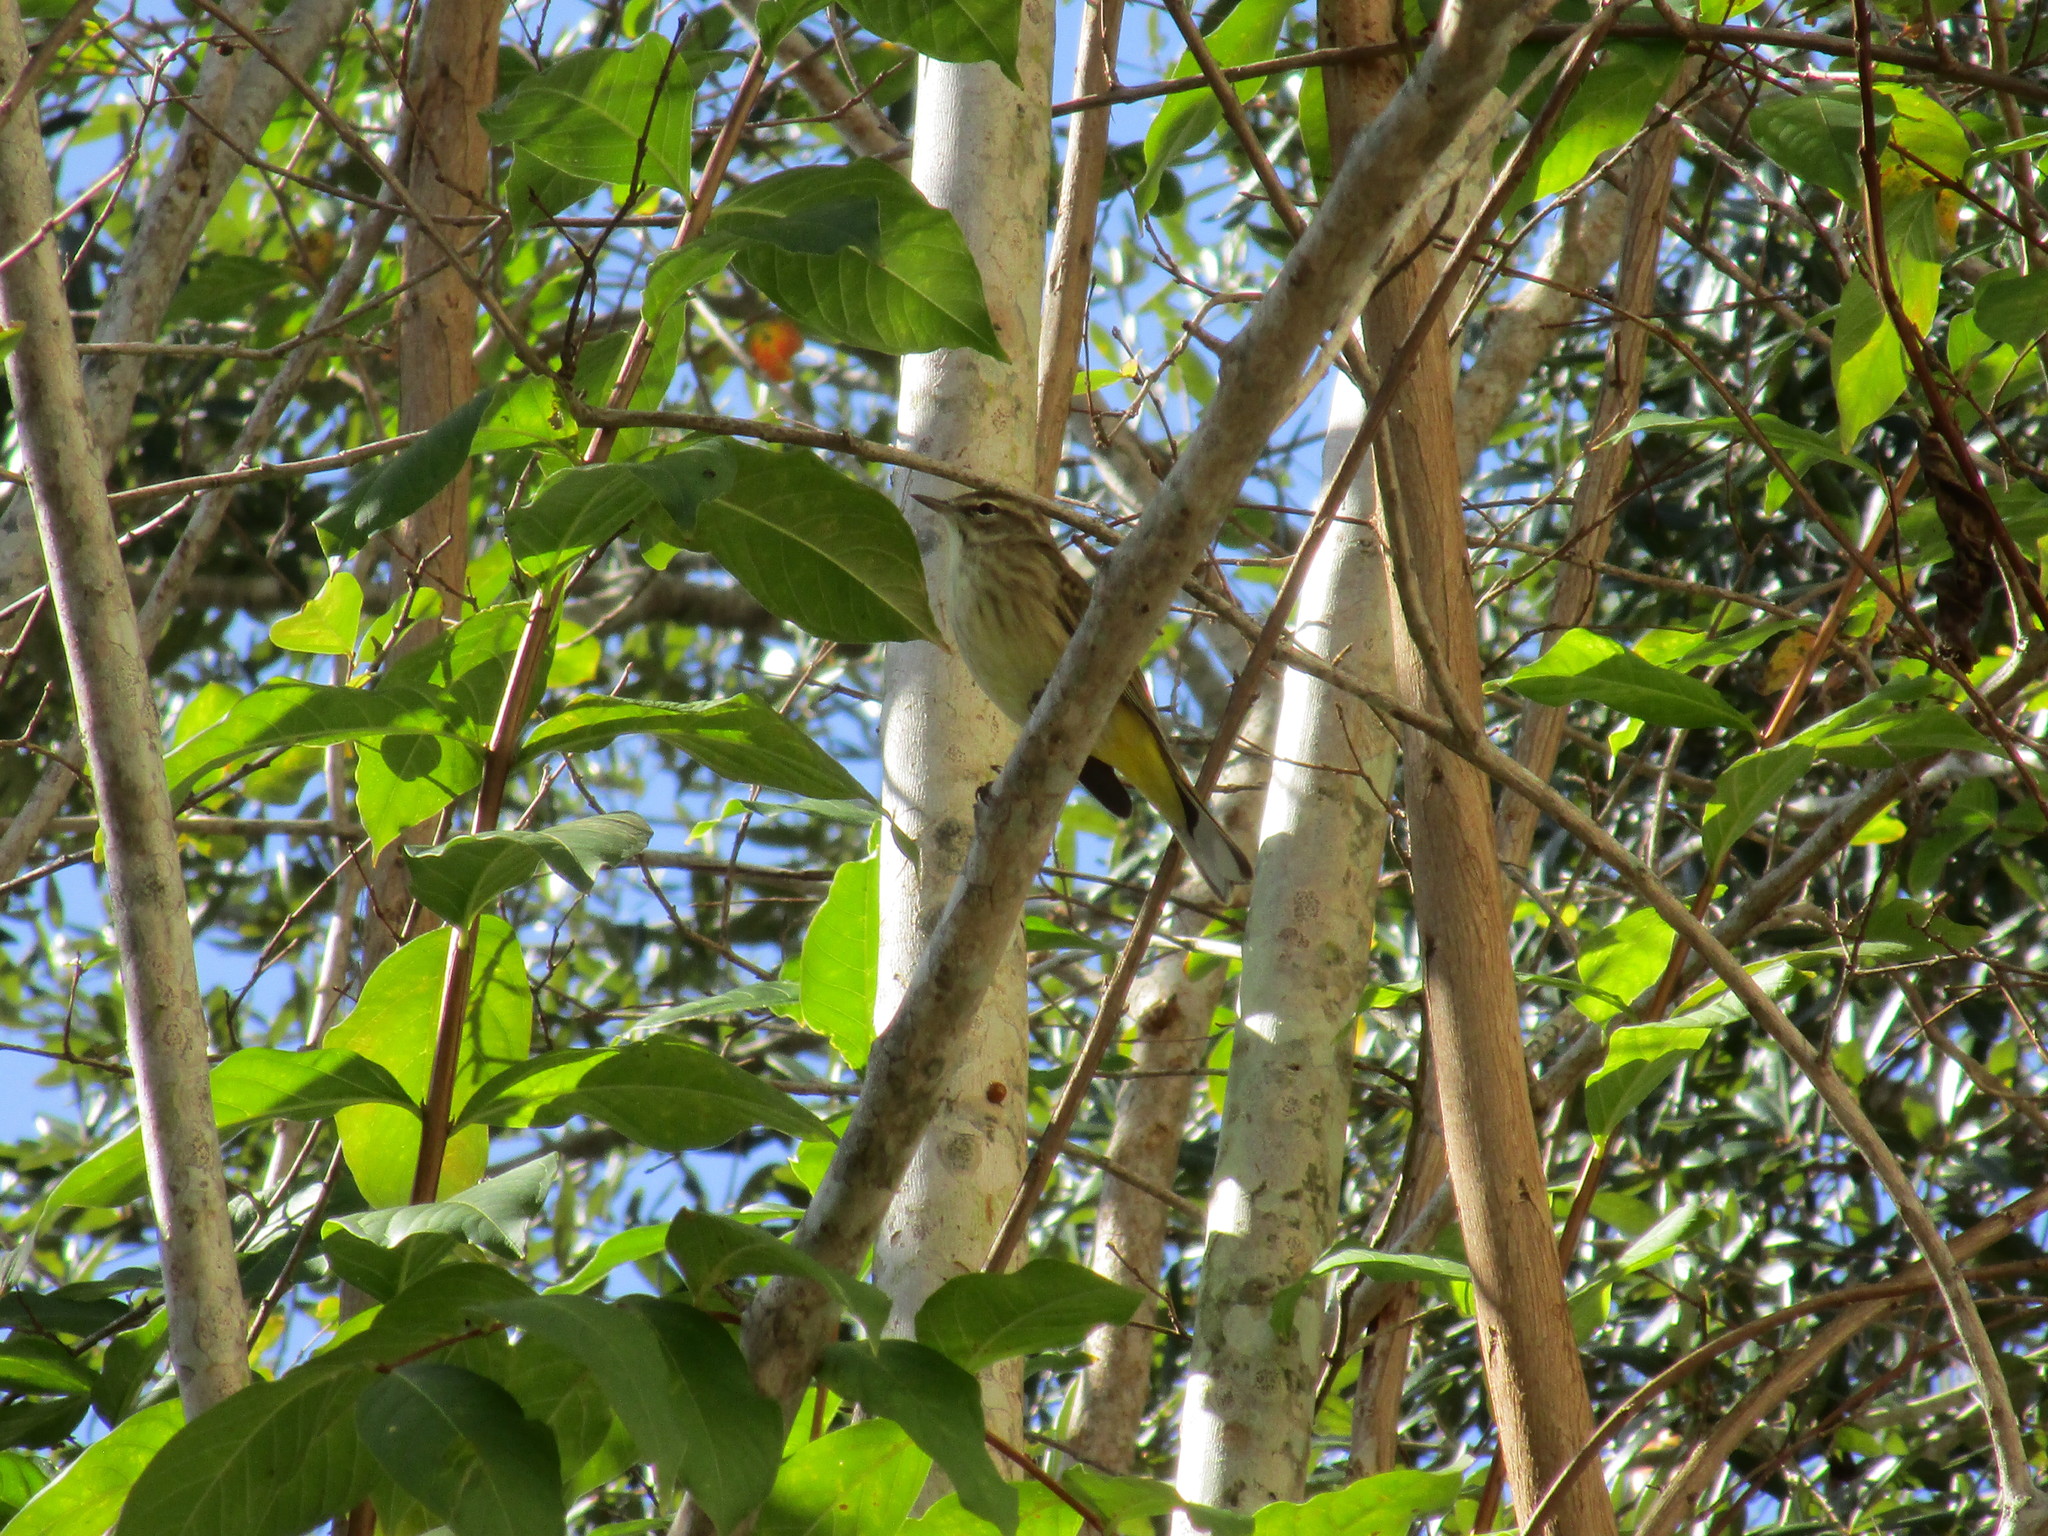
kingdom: Animalia
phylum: Chordata
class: Aves
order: Passeriformes
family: Parulidae
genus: Setophaga
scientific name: Setophaga palmarum
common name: Palm warbler
